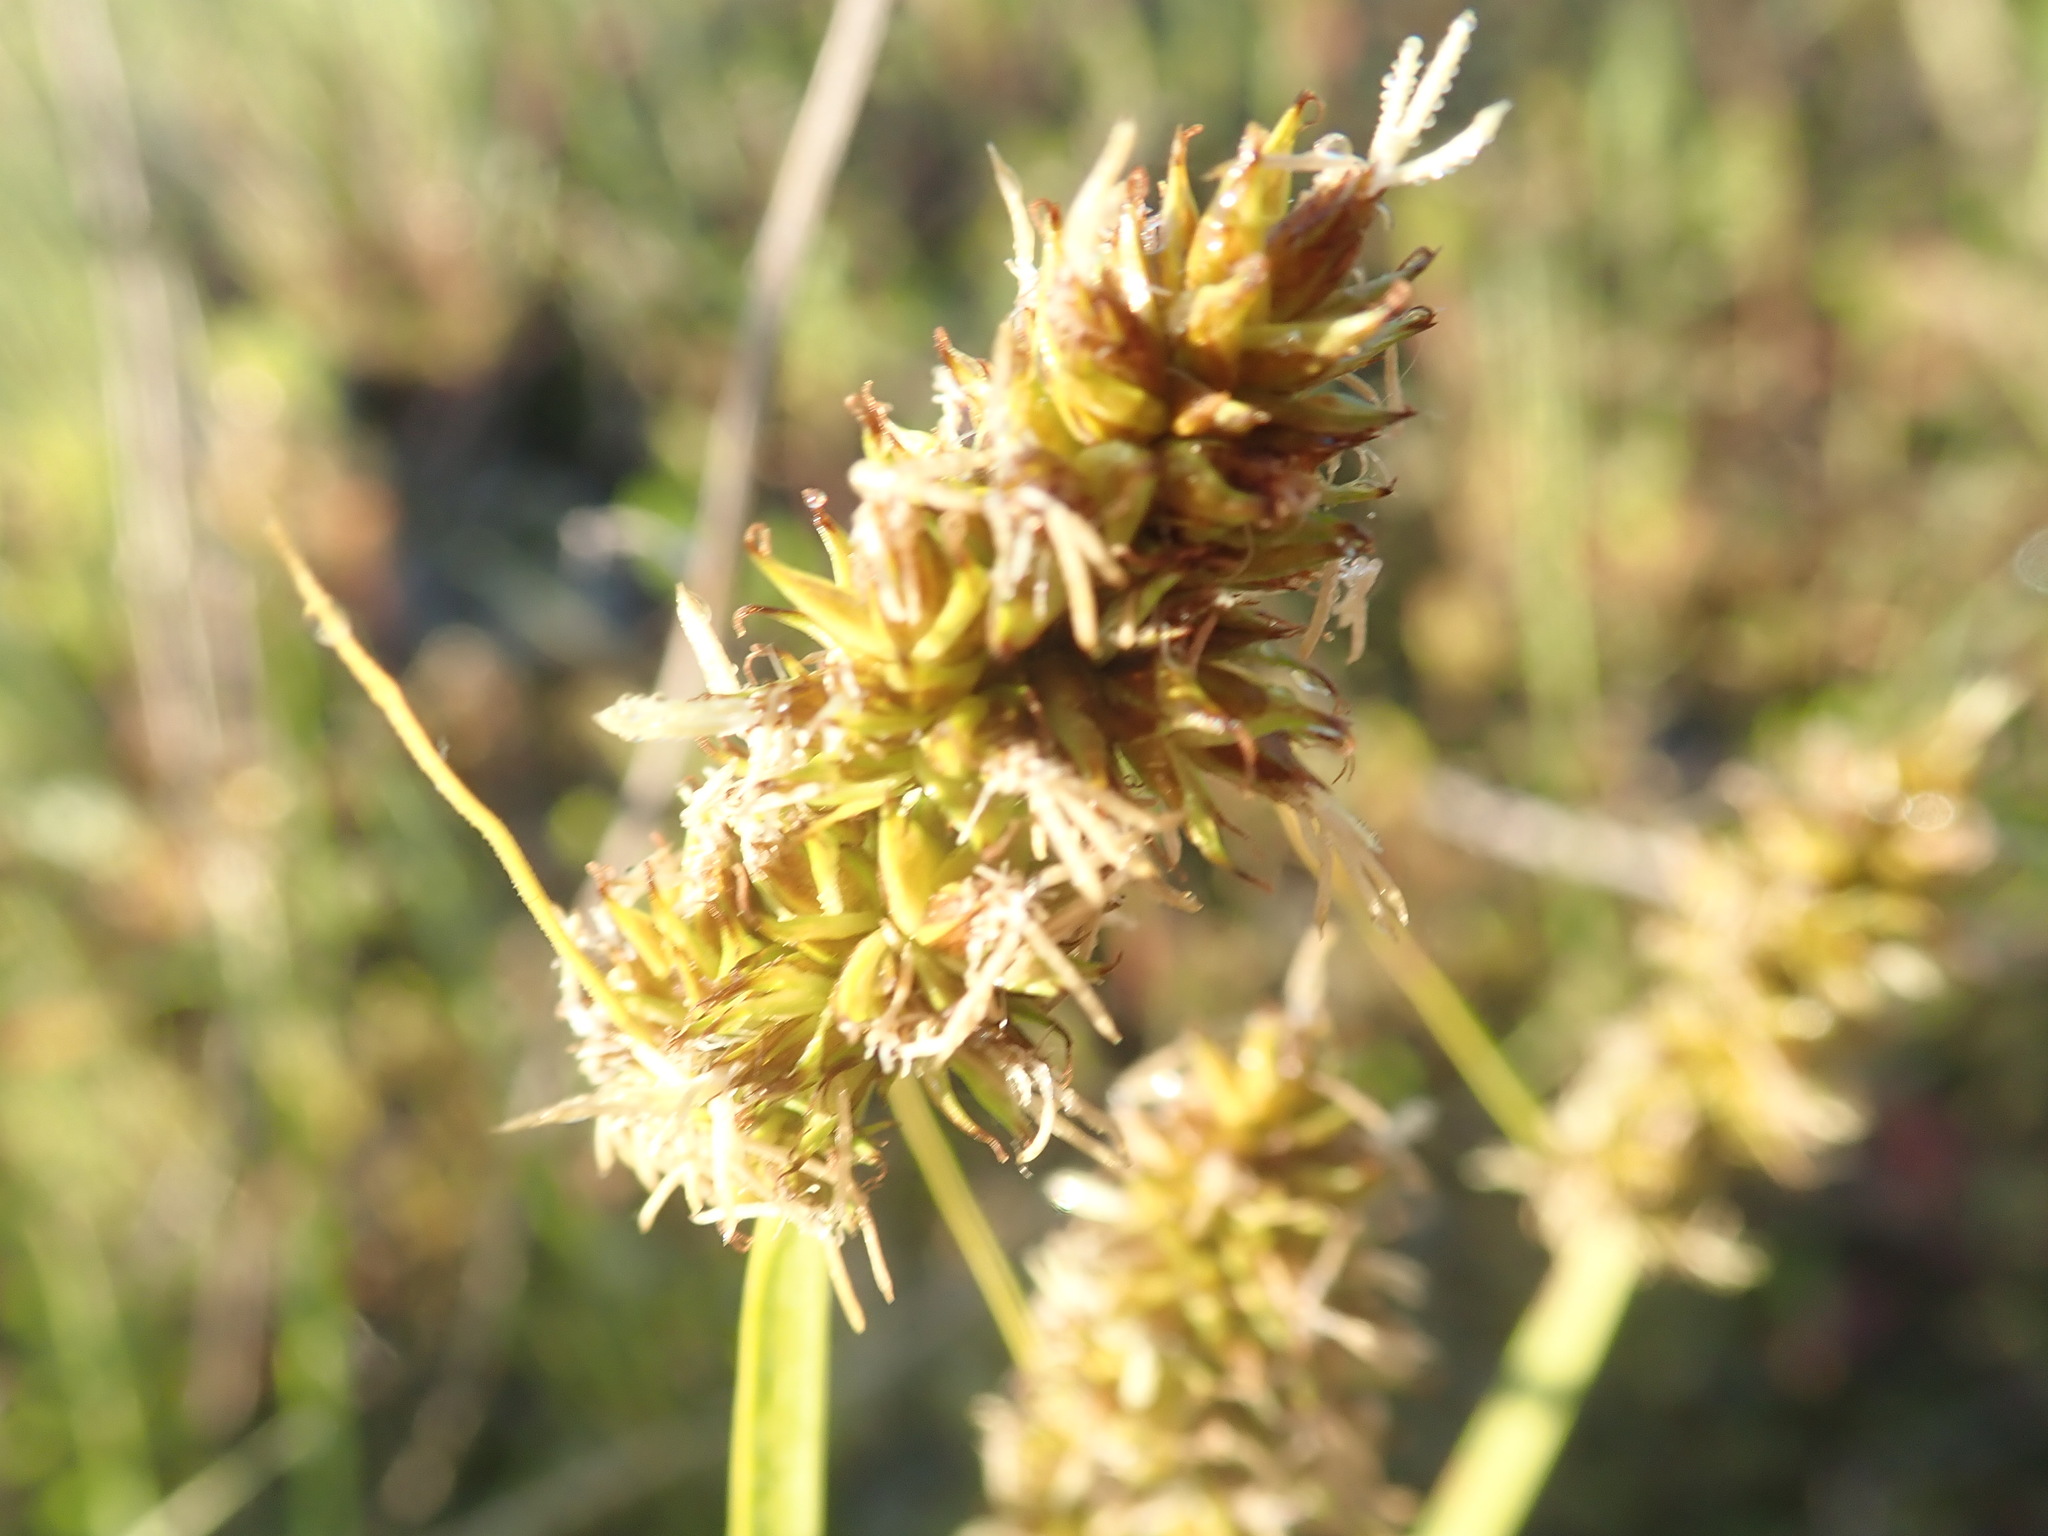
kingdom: Plantae
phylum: Tracheophyta
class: Liliopsida
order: Poales
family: Cyperaceae
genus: Carex
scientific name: Carex otrubae
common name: False fox-sedge
